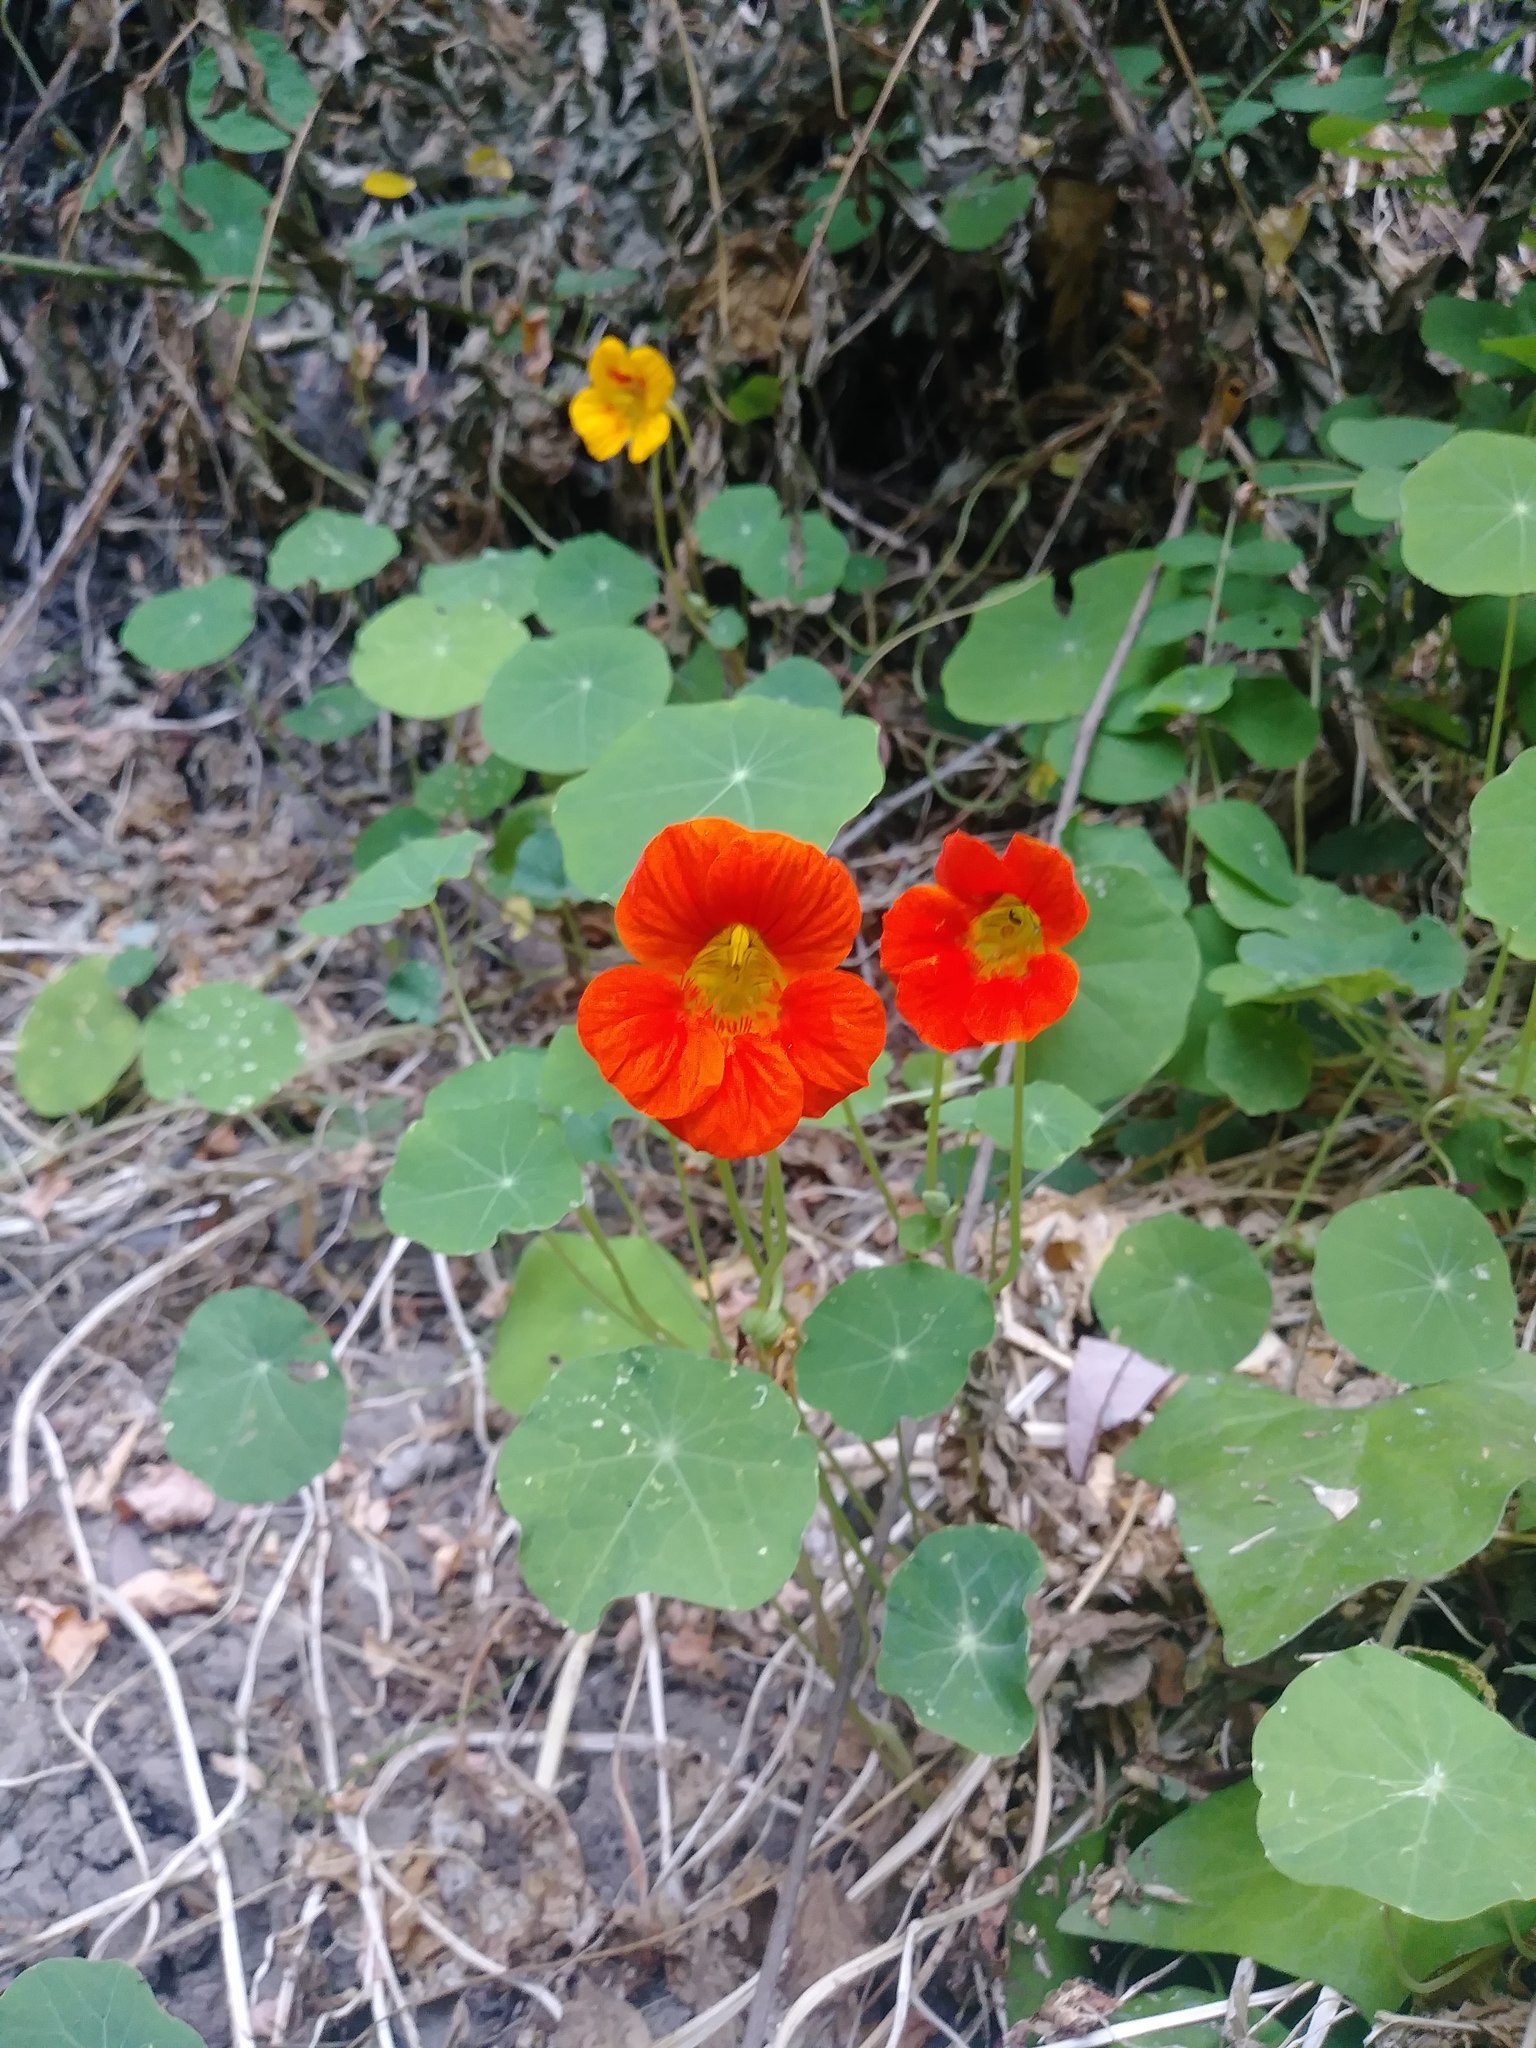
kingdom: Plantae
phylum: Tracheophyta
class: Magnoliopsida
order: Brassicales
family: Tropaeolaceae
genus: Tropaeolum
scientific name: Tropaeolum majus
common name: Nasturtium
